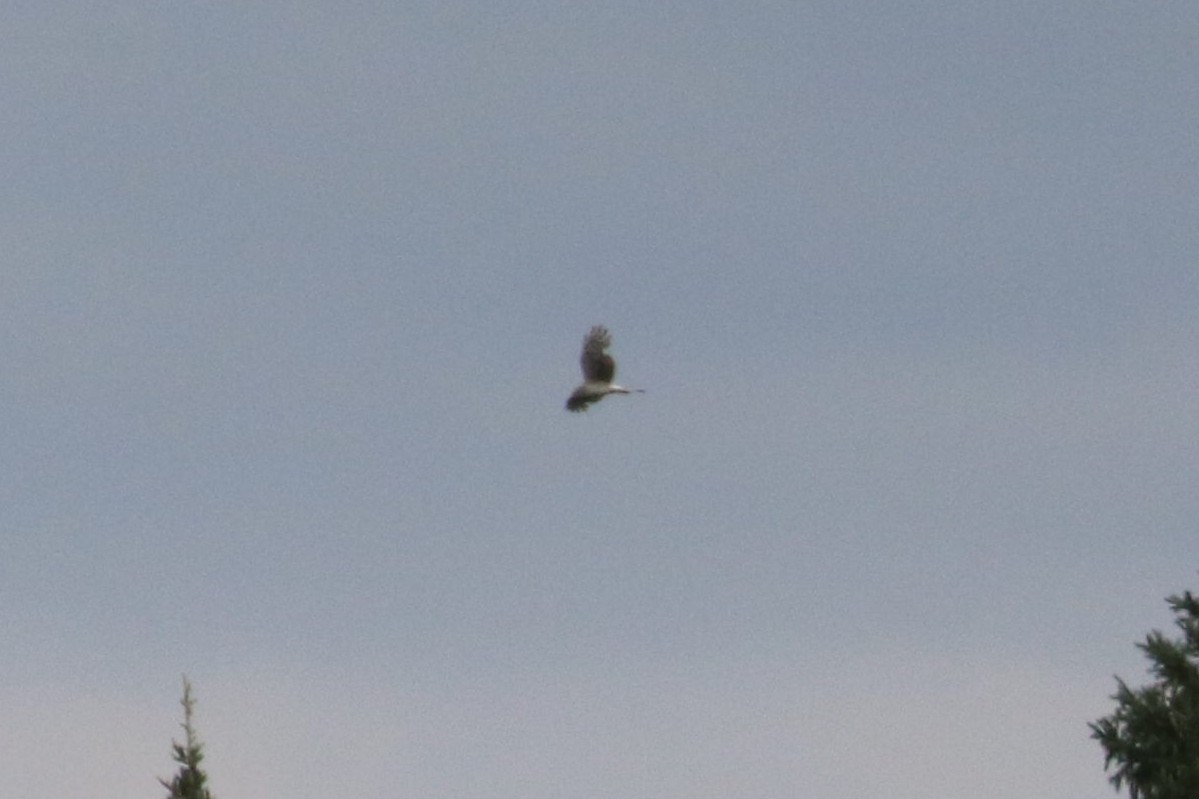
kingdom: Animalia
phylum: Chordata
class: Aves
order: Accipitriformes
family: Accipitridae
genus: Circus
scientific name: Circus cyaneus
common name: Hen harrier
